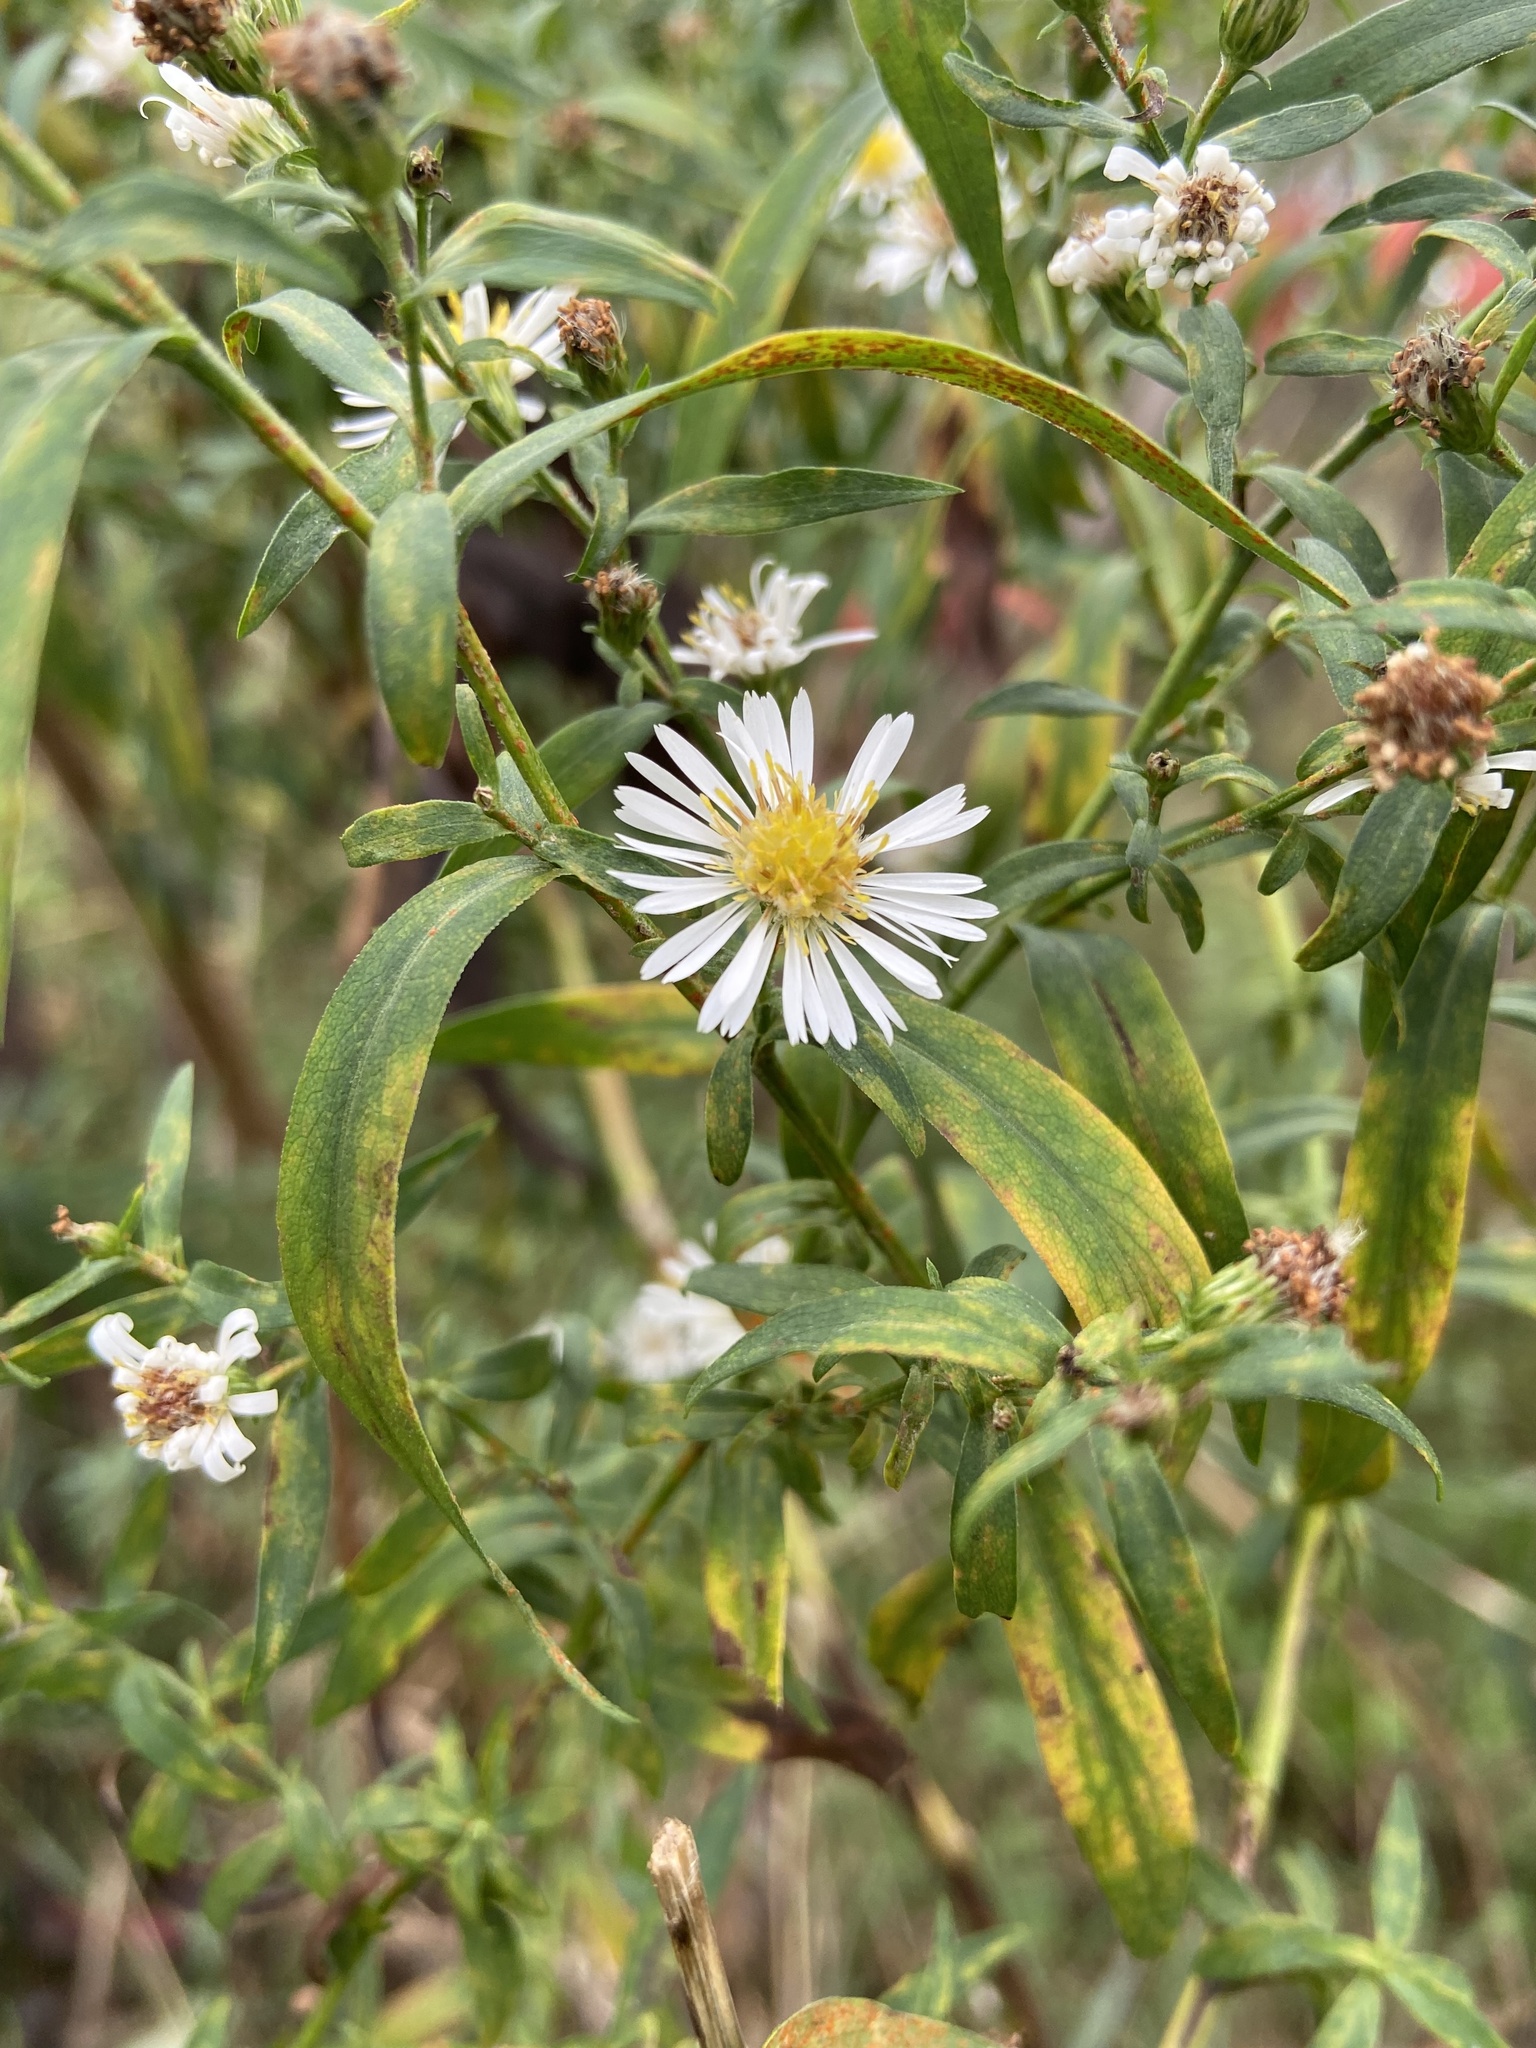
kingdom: Plantae
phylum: Tracheophyta
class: Magnoliopsida
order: Asterales
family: Asteraceae
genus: Symphyotrichum
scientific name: Symphyotrichum lanceolatum
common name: Panicled aster
